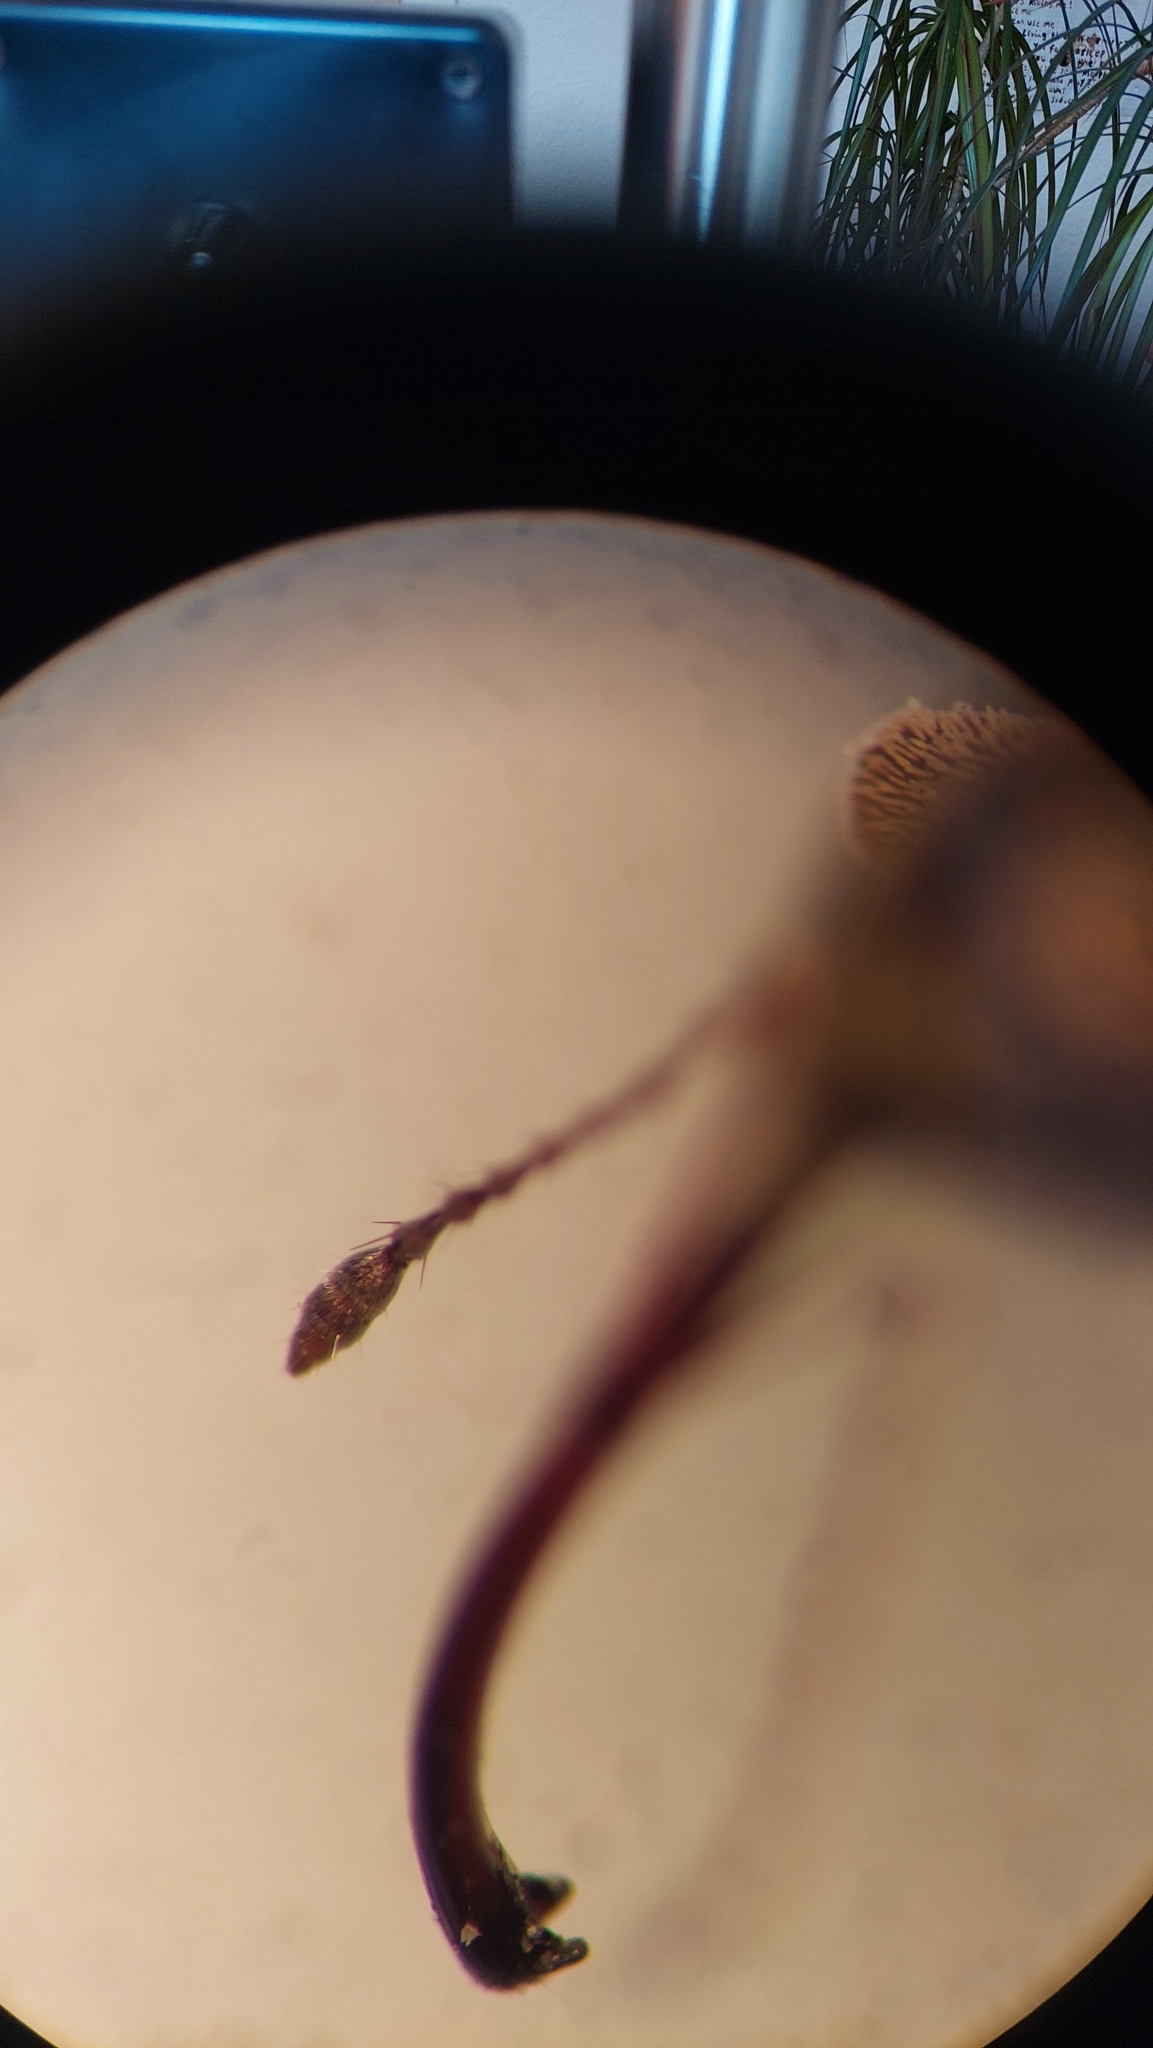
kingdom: Animalia
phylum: Arthropoda
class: Insecta
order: Coleoptera
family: Curculionidae
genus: Curculio
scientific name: Curculio venosus
